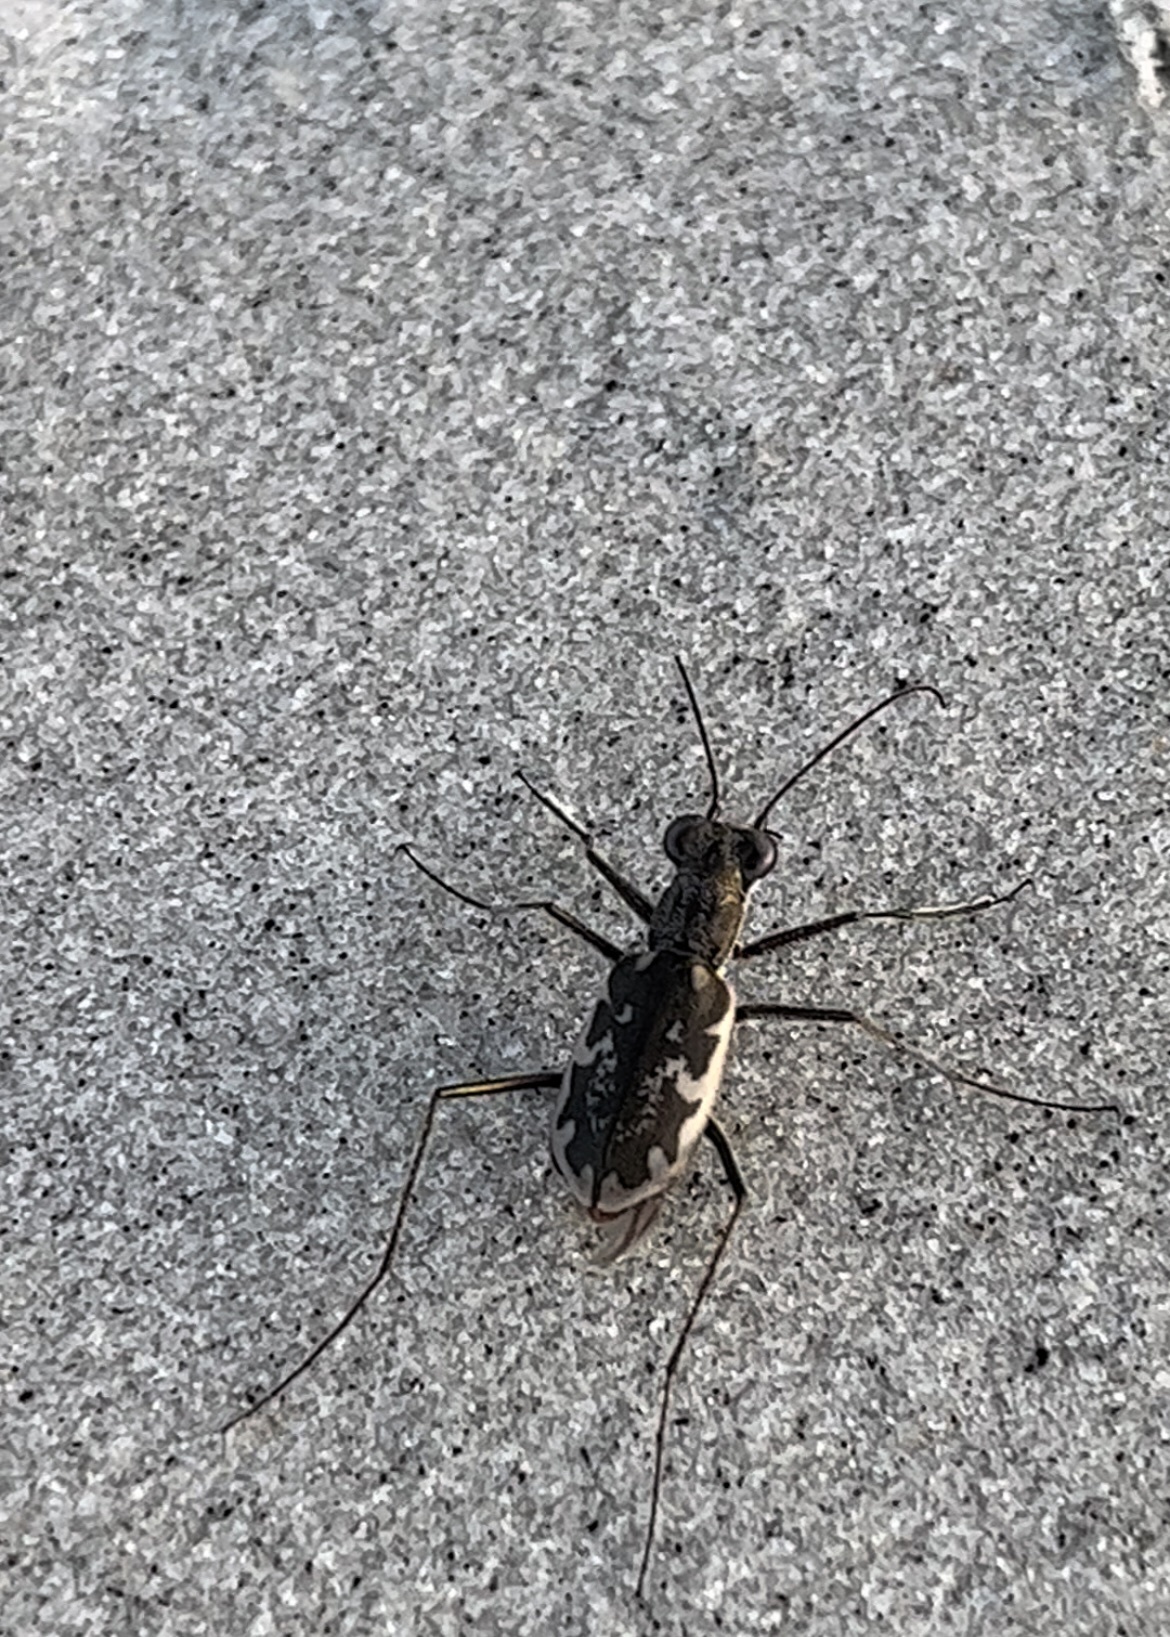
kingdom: Animalia
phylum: Arthropoda
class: Insecta
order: Coleoptera
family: Carabidae
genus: Ellipsoptera
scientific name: Ellipsoptera marginata
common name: Margined tiger beetle
